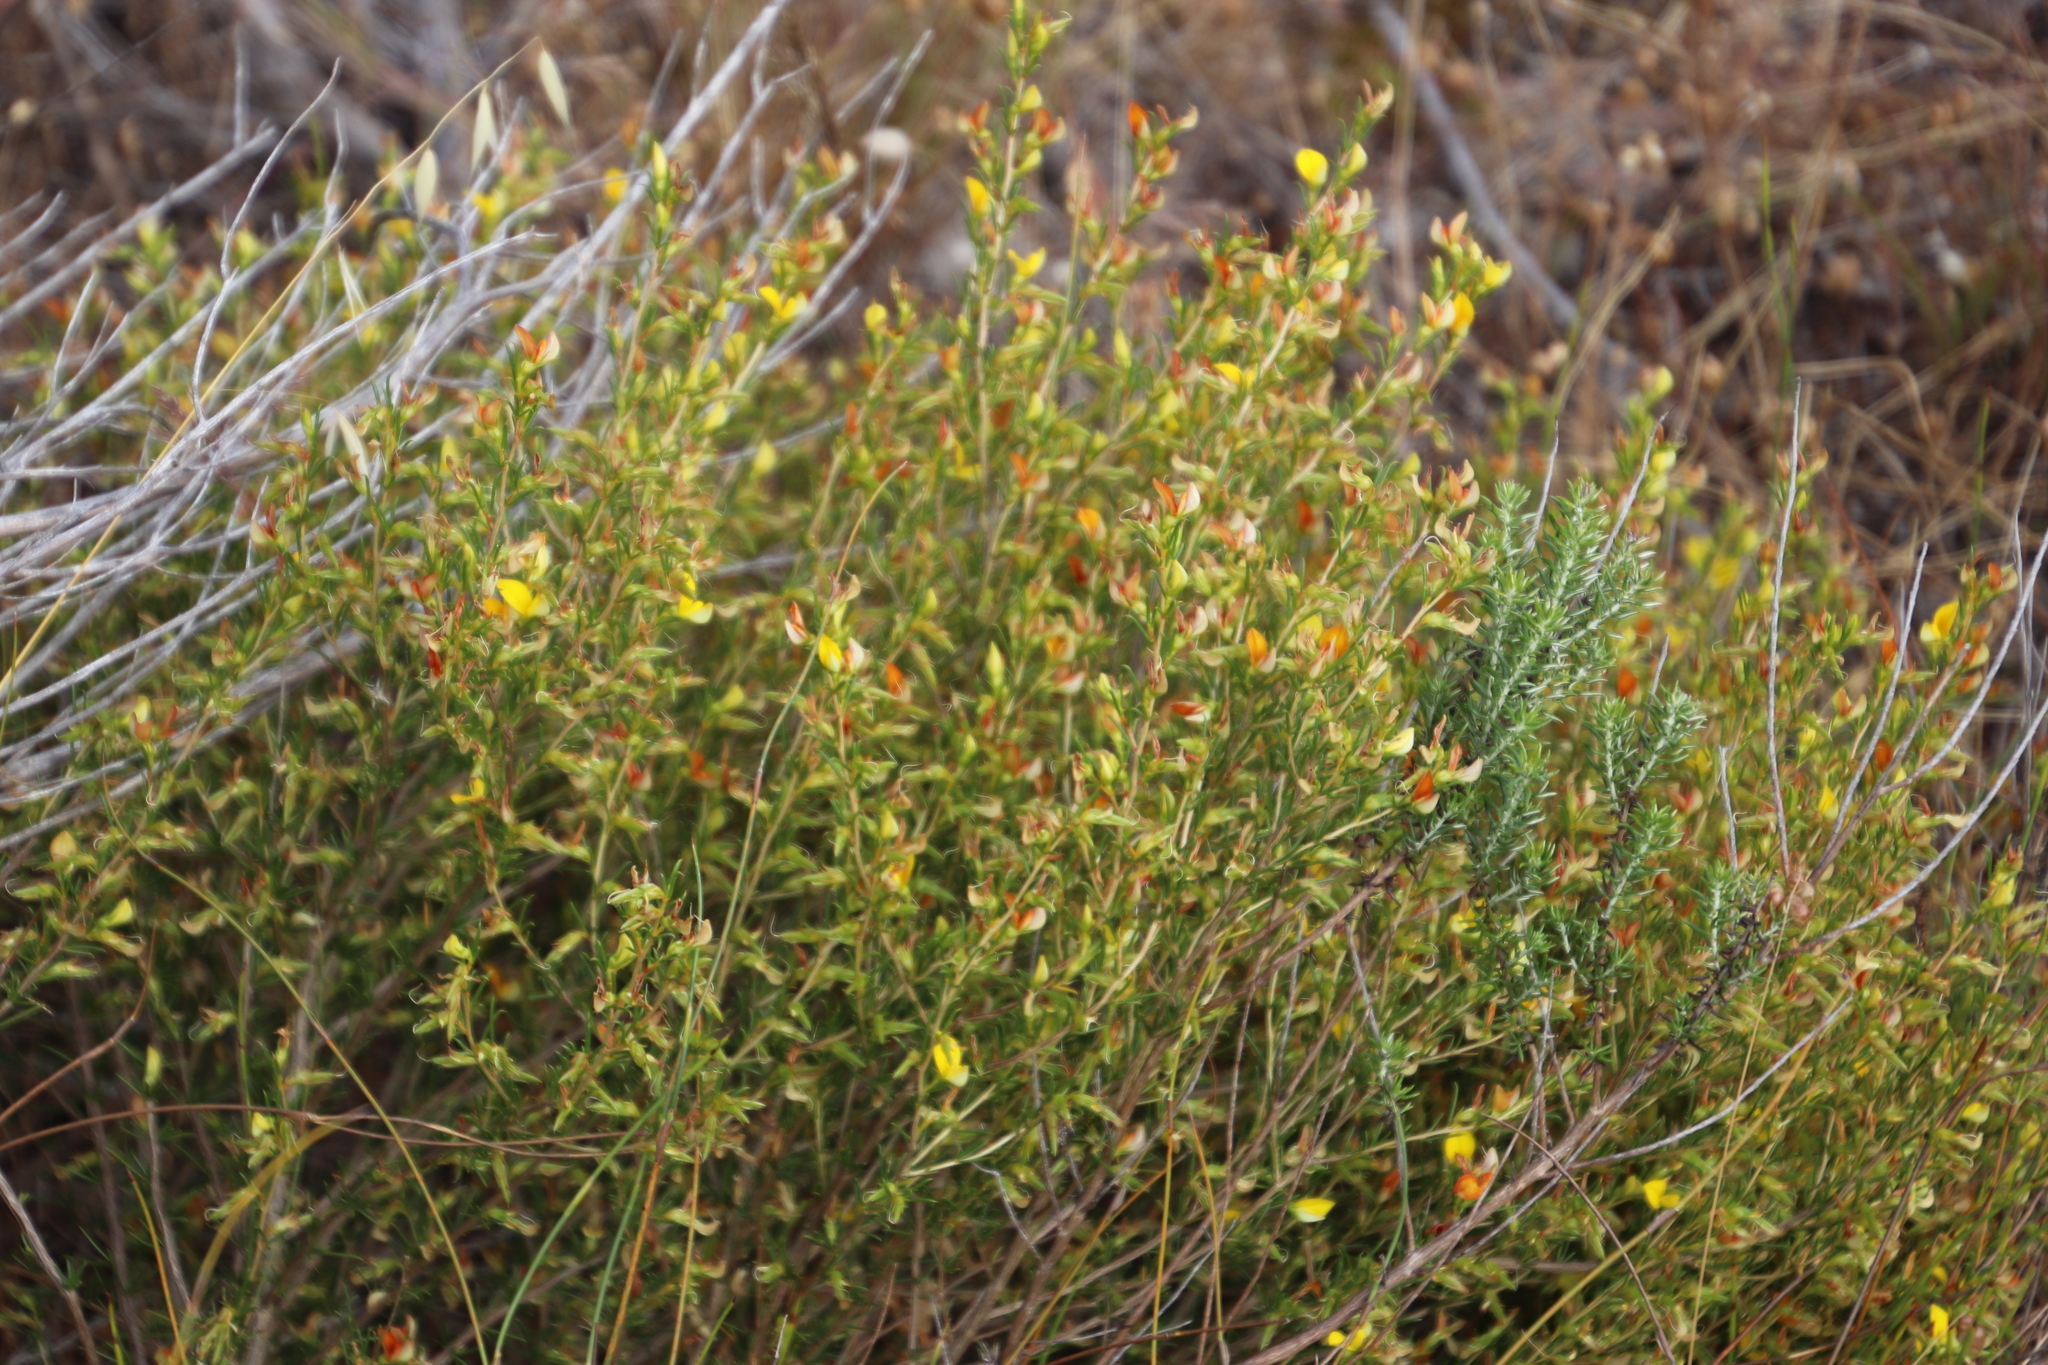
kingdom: Plantae
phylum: Tracheophyta
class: Magnoliopsida
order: Fabales
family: Fabaceae
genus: Aspalathus
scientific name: Aspalathus abietina
